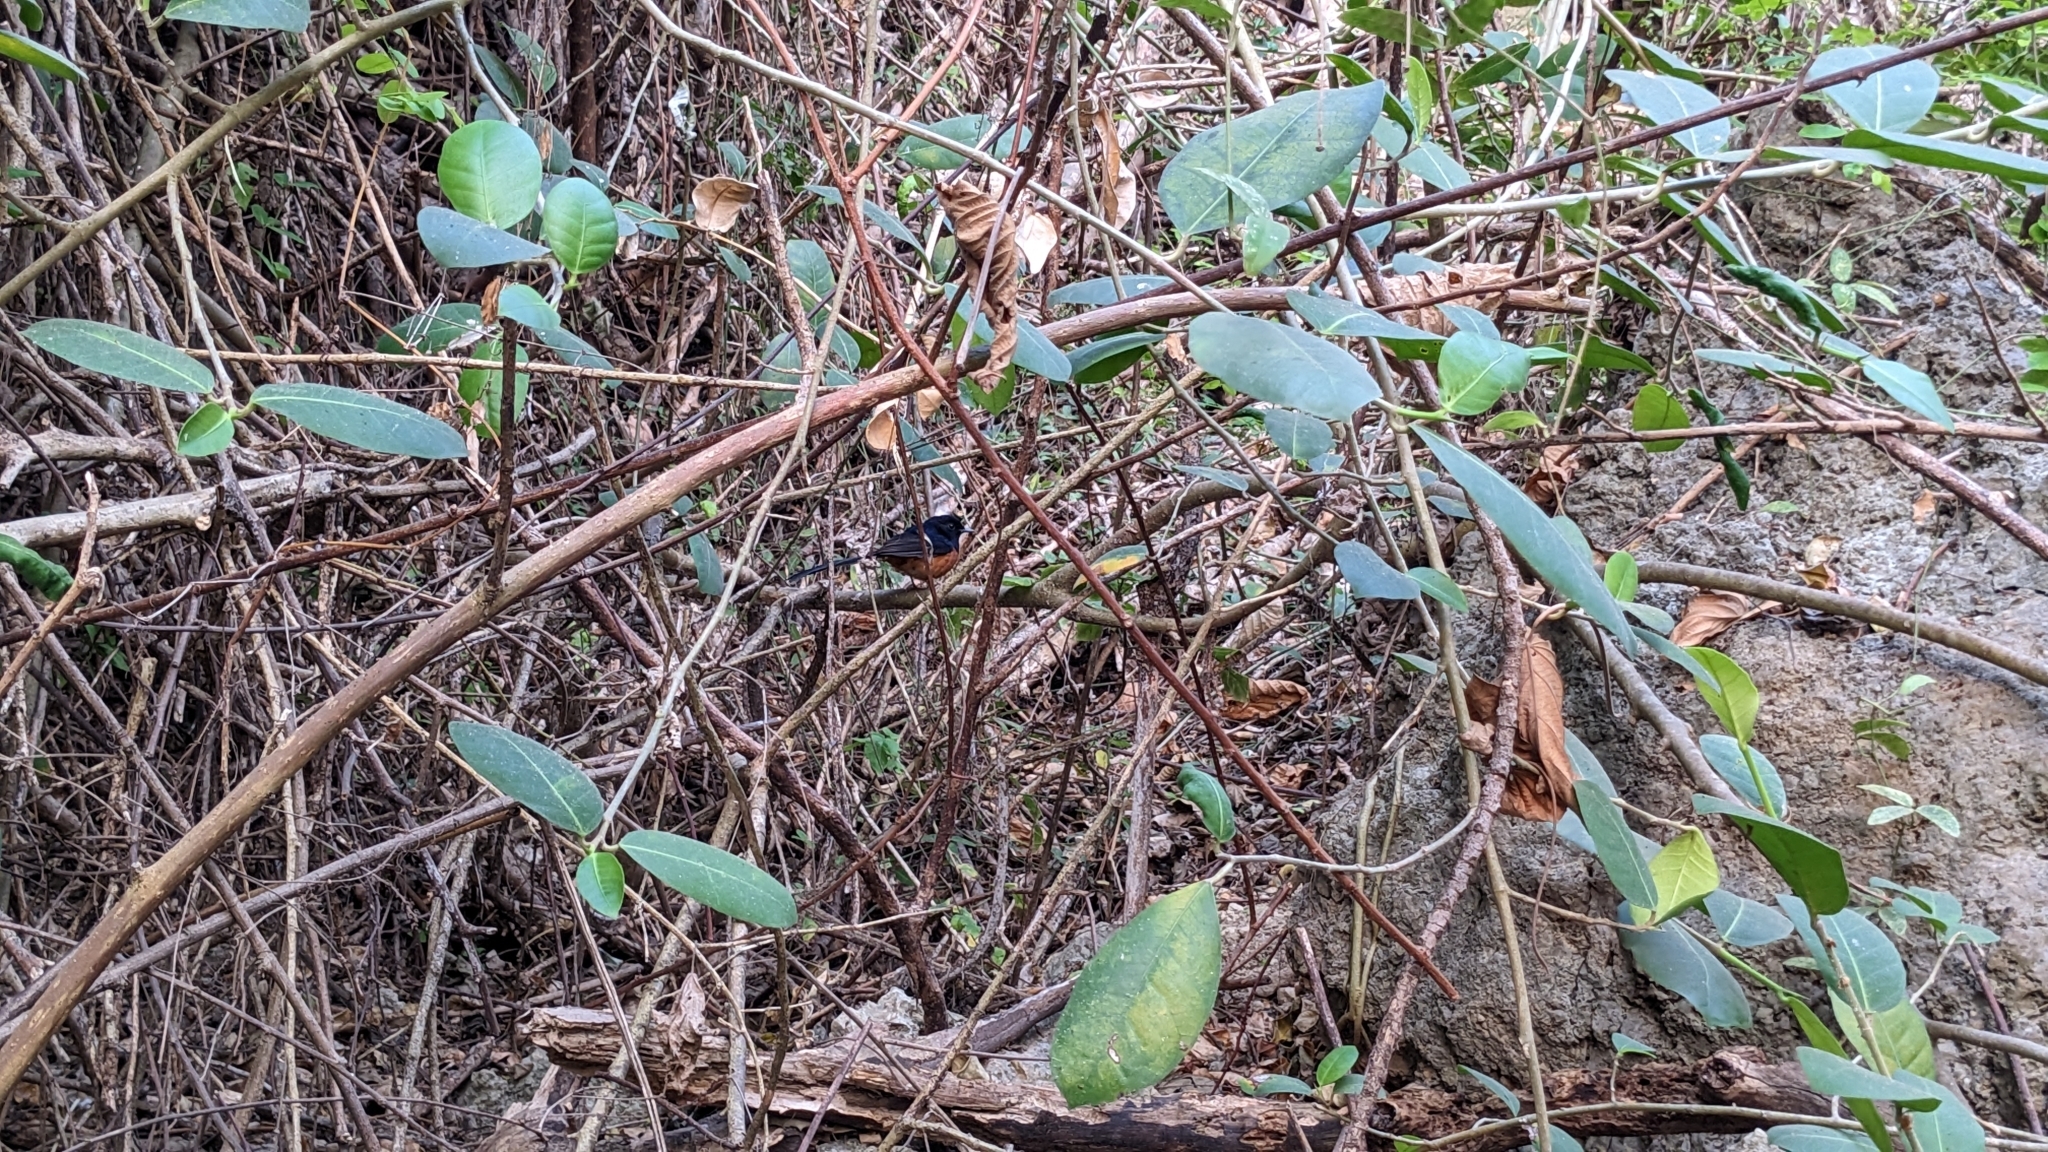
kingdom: Animalia
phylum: Chordata
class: Aves
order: Passeriformes
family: Muscicapidae
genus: Copsychus
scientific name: Copsychus malabaricus
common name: White-rumped shama
